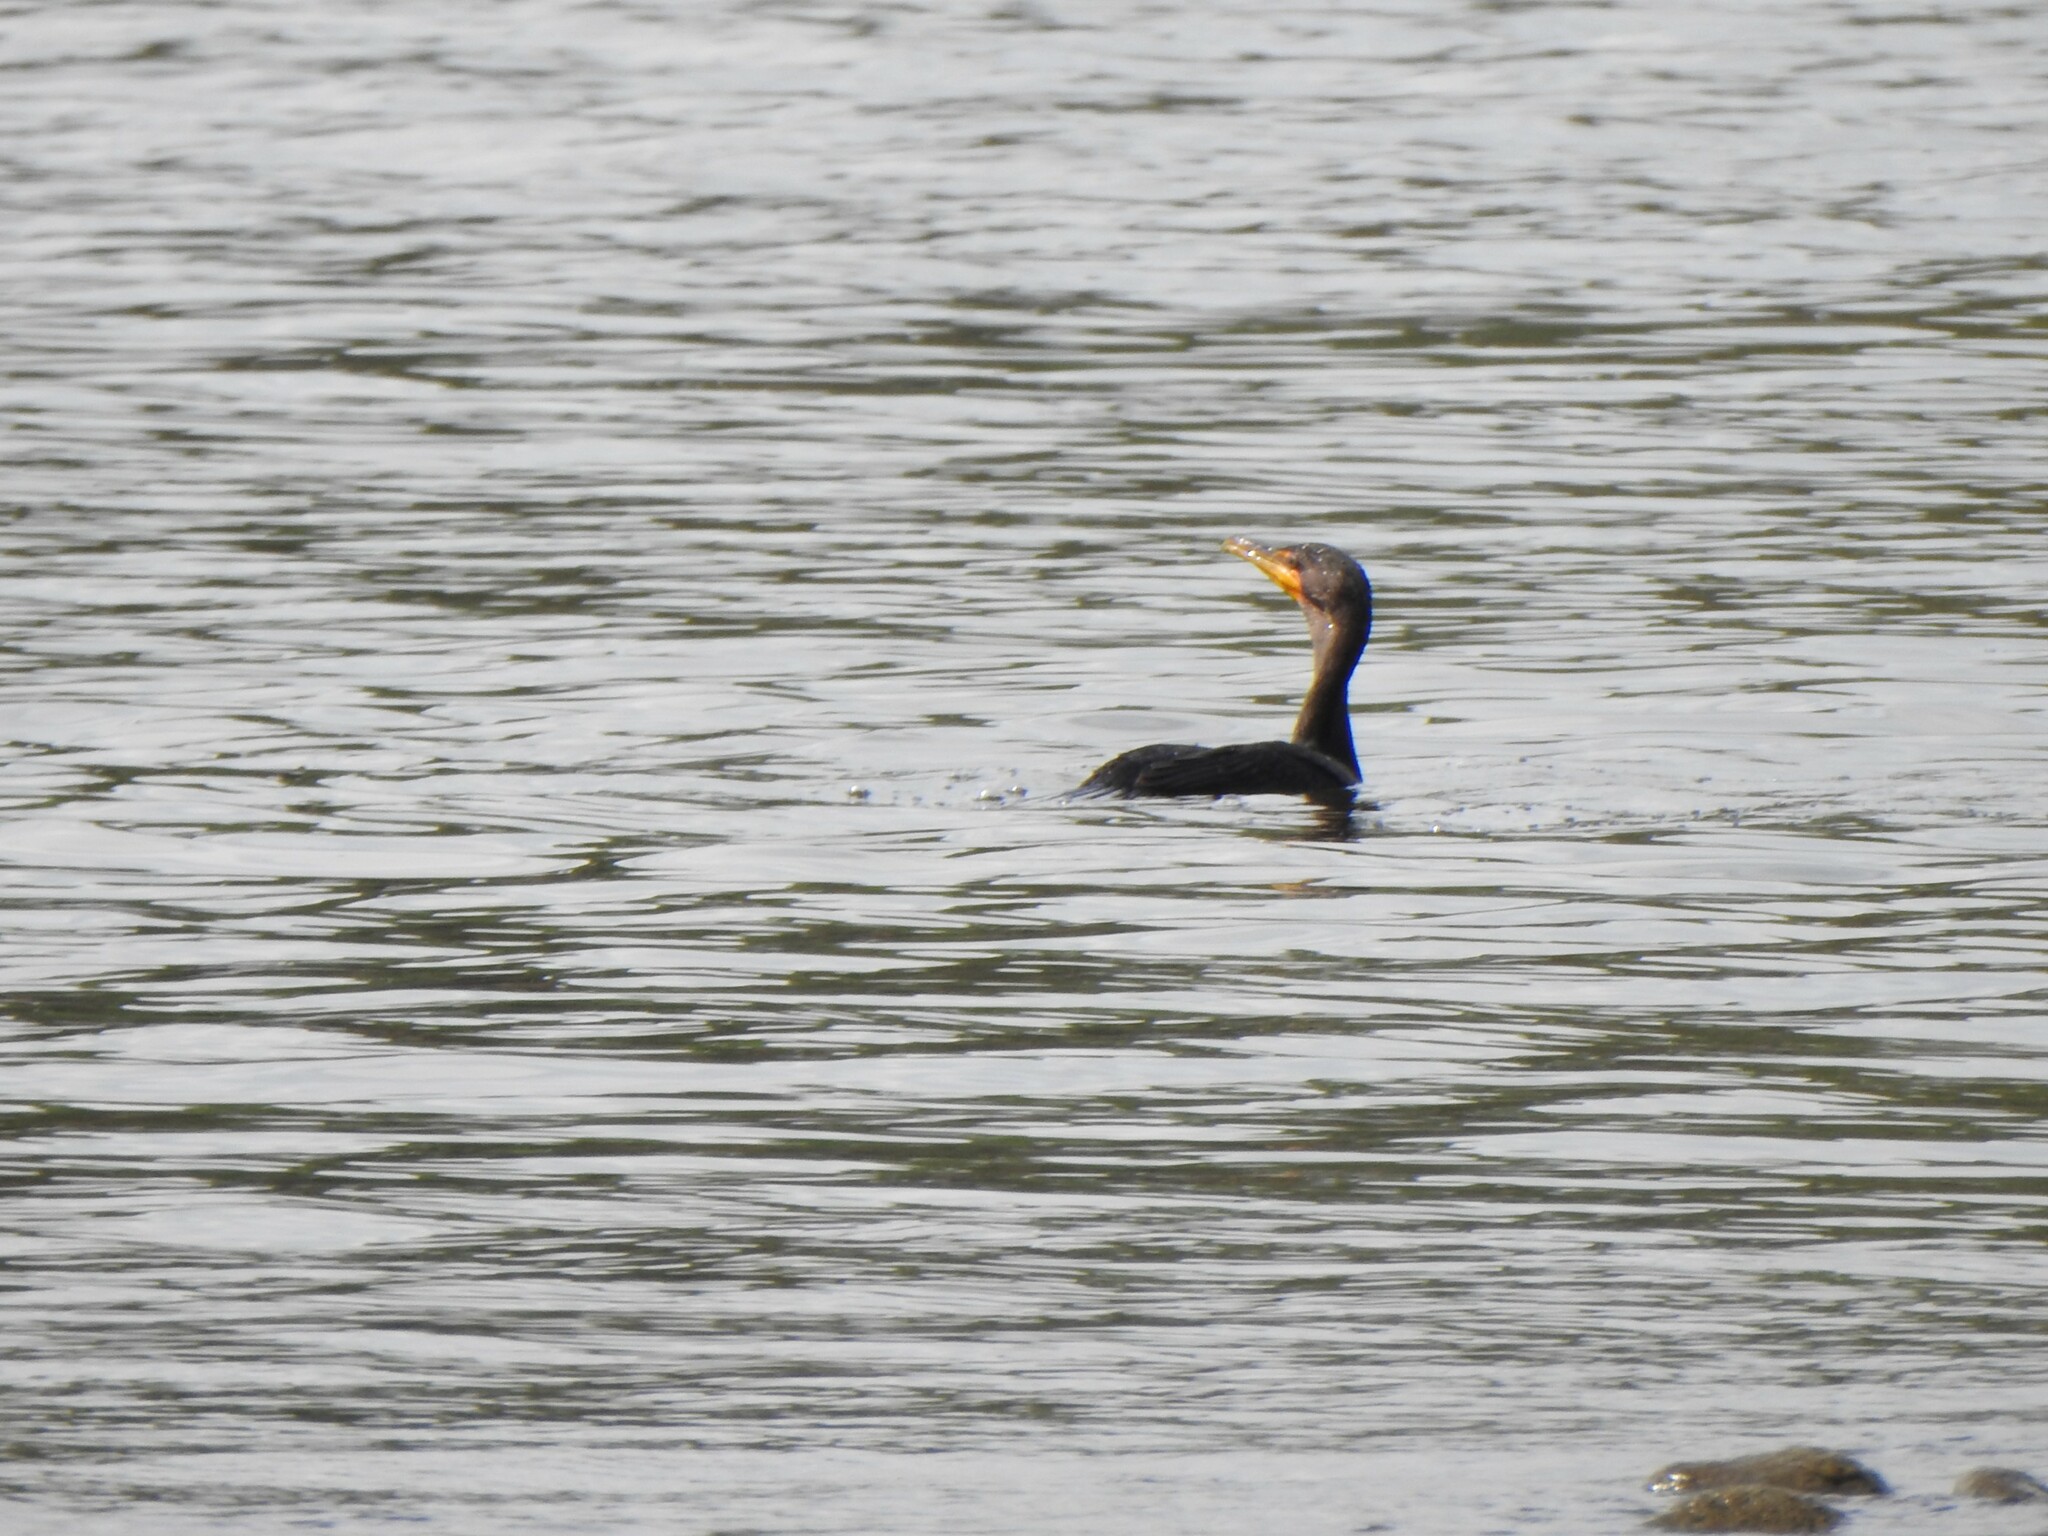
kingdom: Animalia
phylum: Chordata
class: Aves
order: Suliformes
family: Phalacrocoracidae
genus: Phalacrocorax
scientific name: Phalacrocorax auritus
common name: Double-crested cormorant
